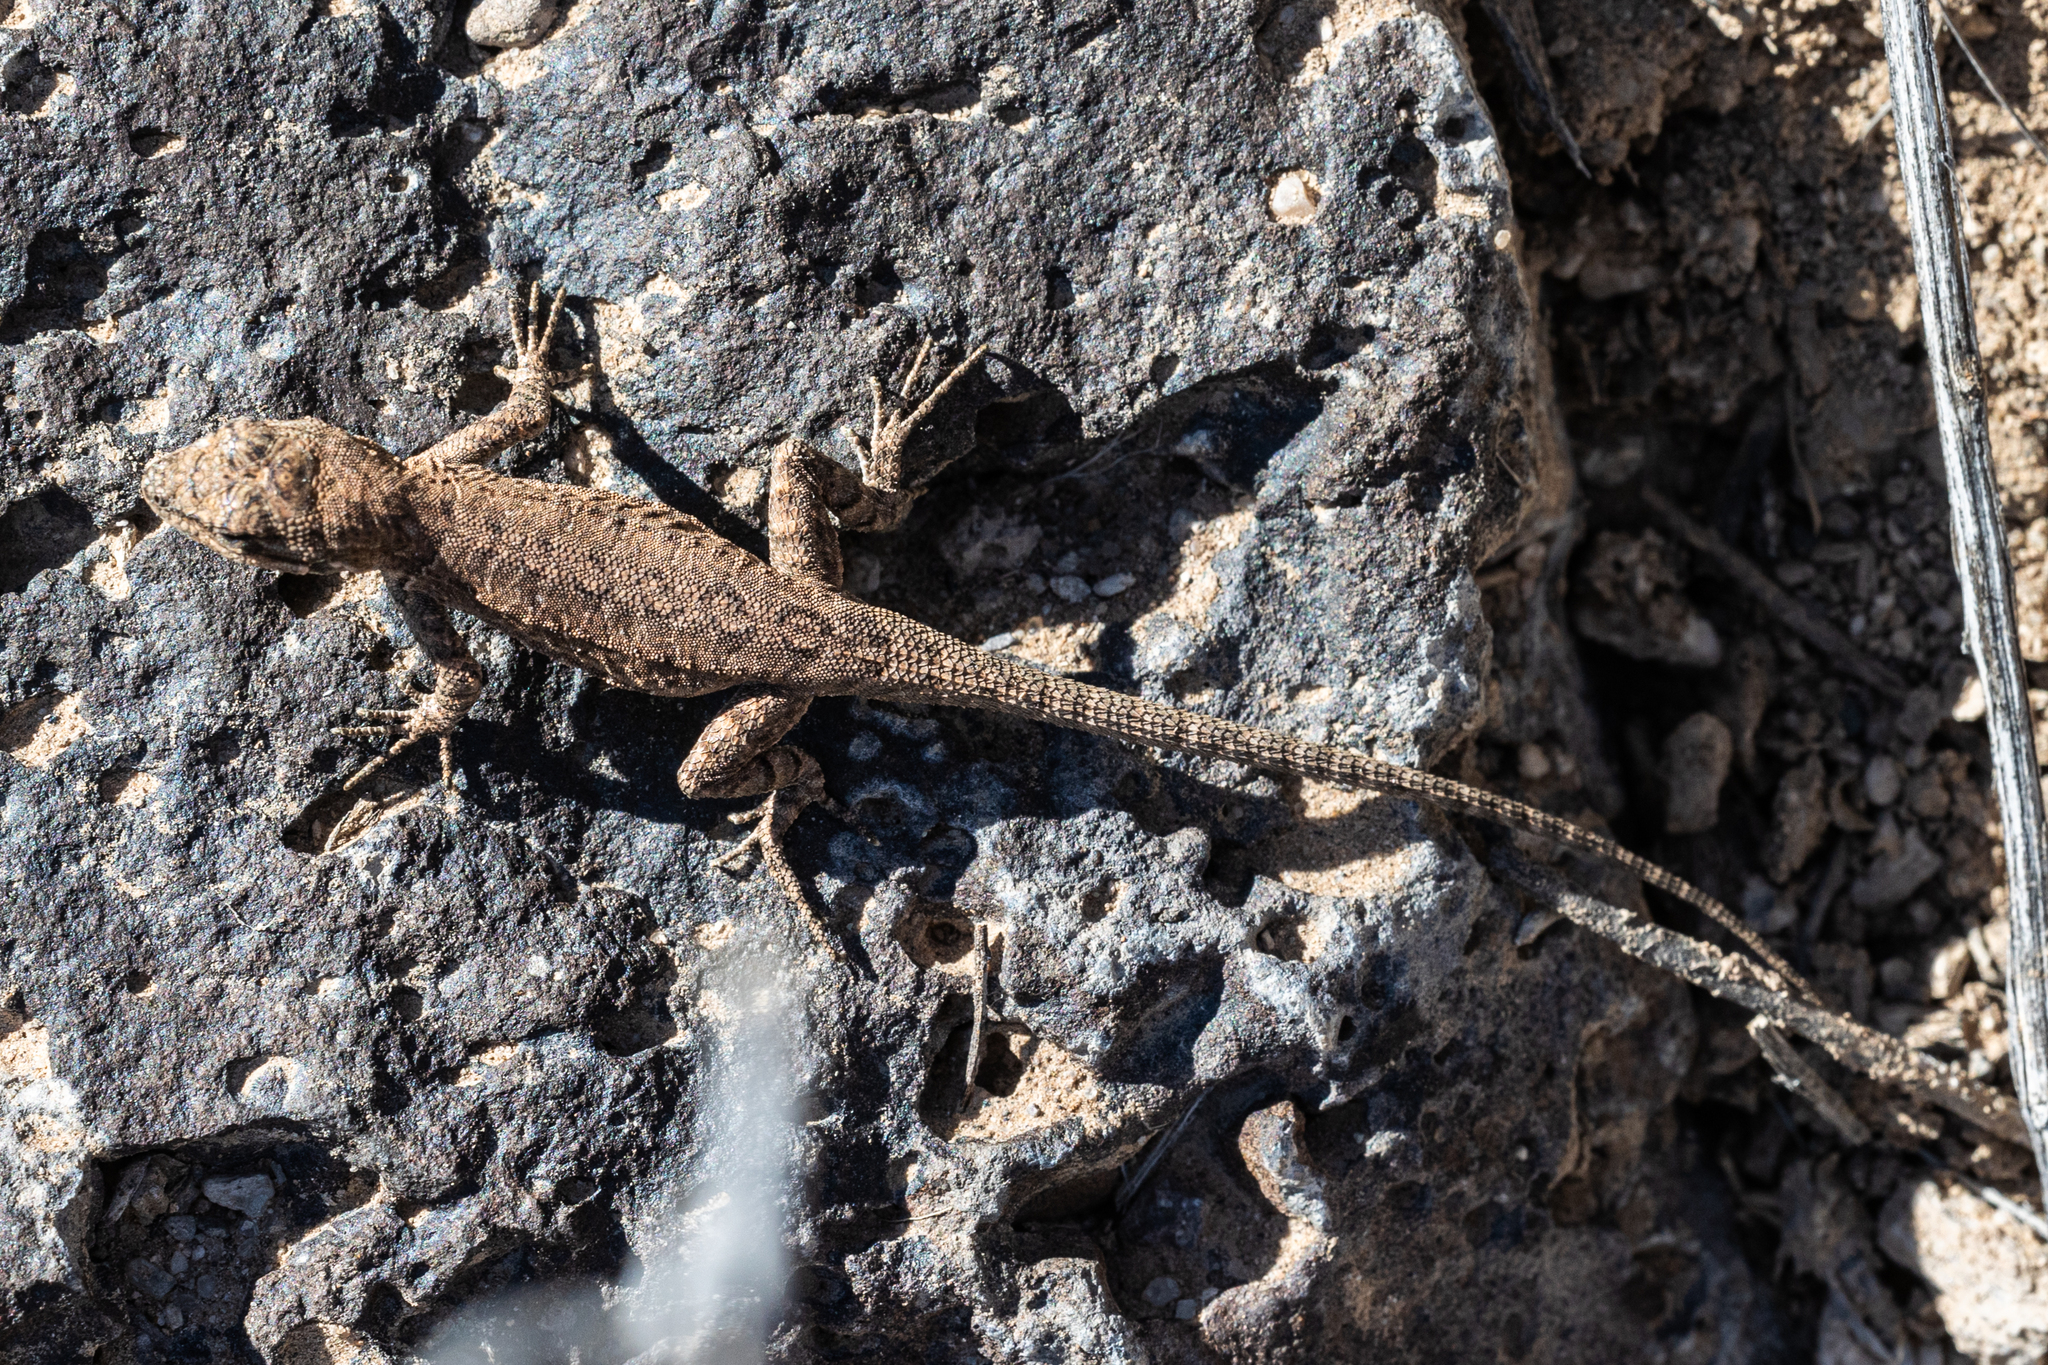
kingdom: Animalia
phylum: Chordata
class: Squamata
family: Phrynosomatidae
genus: Urosaurus
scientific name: Urosaurus ornatus
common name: Ornate tree lizard
